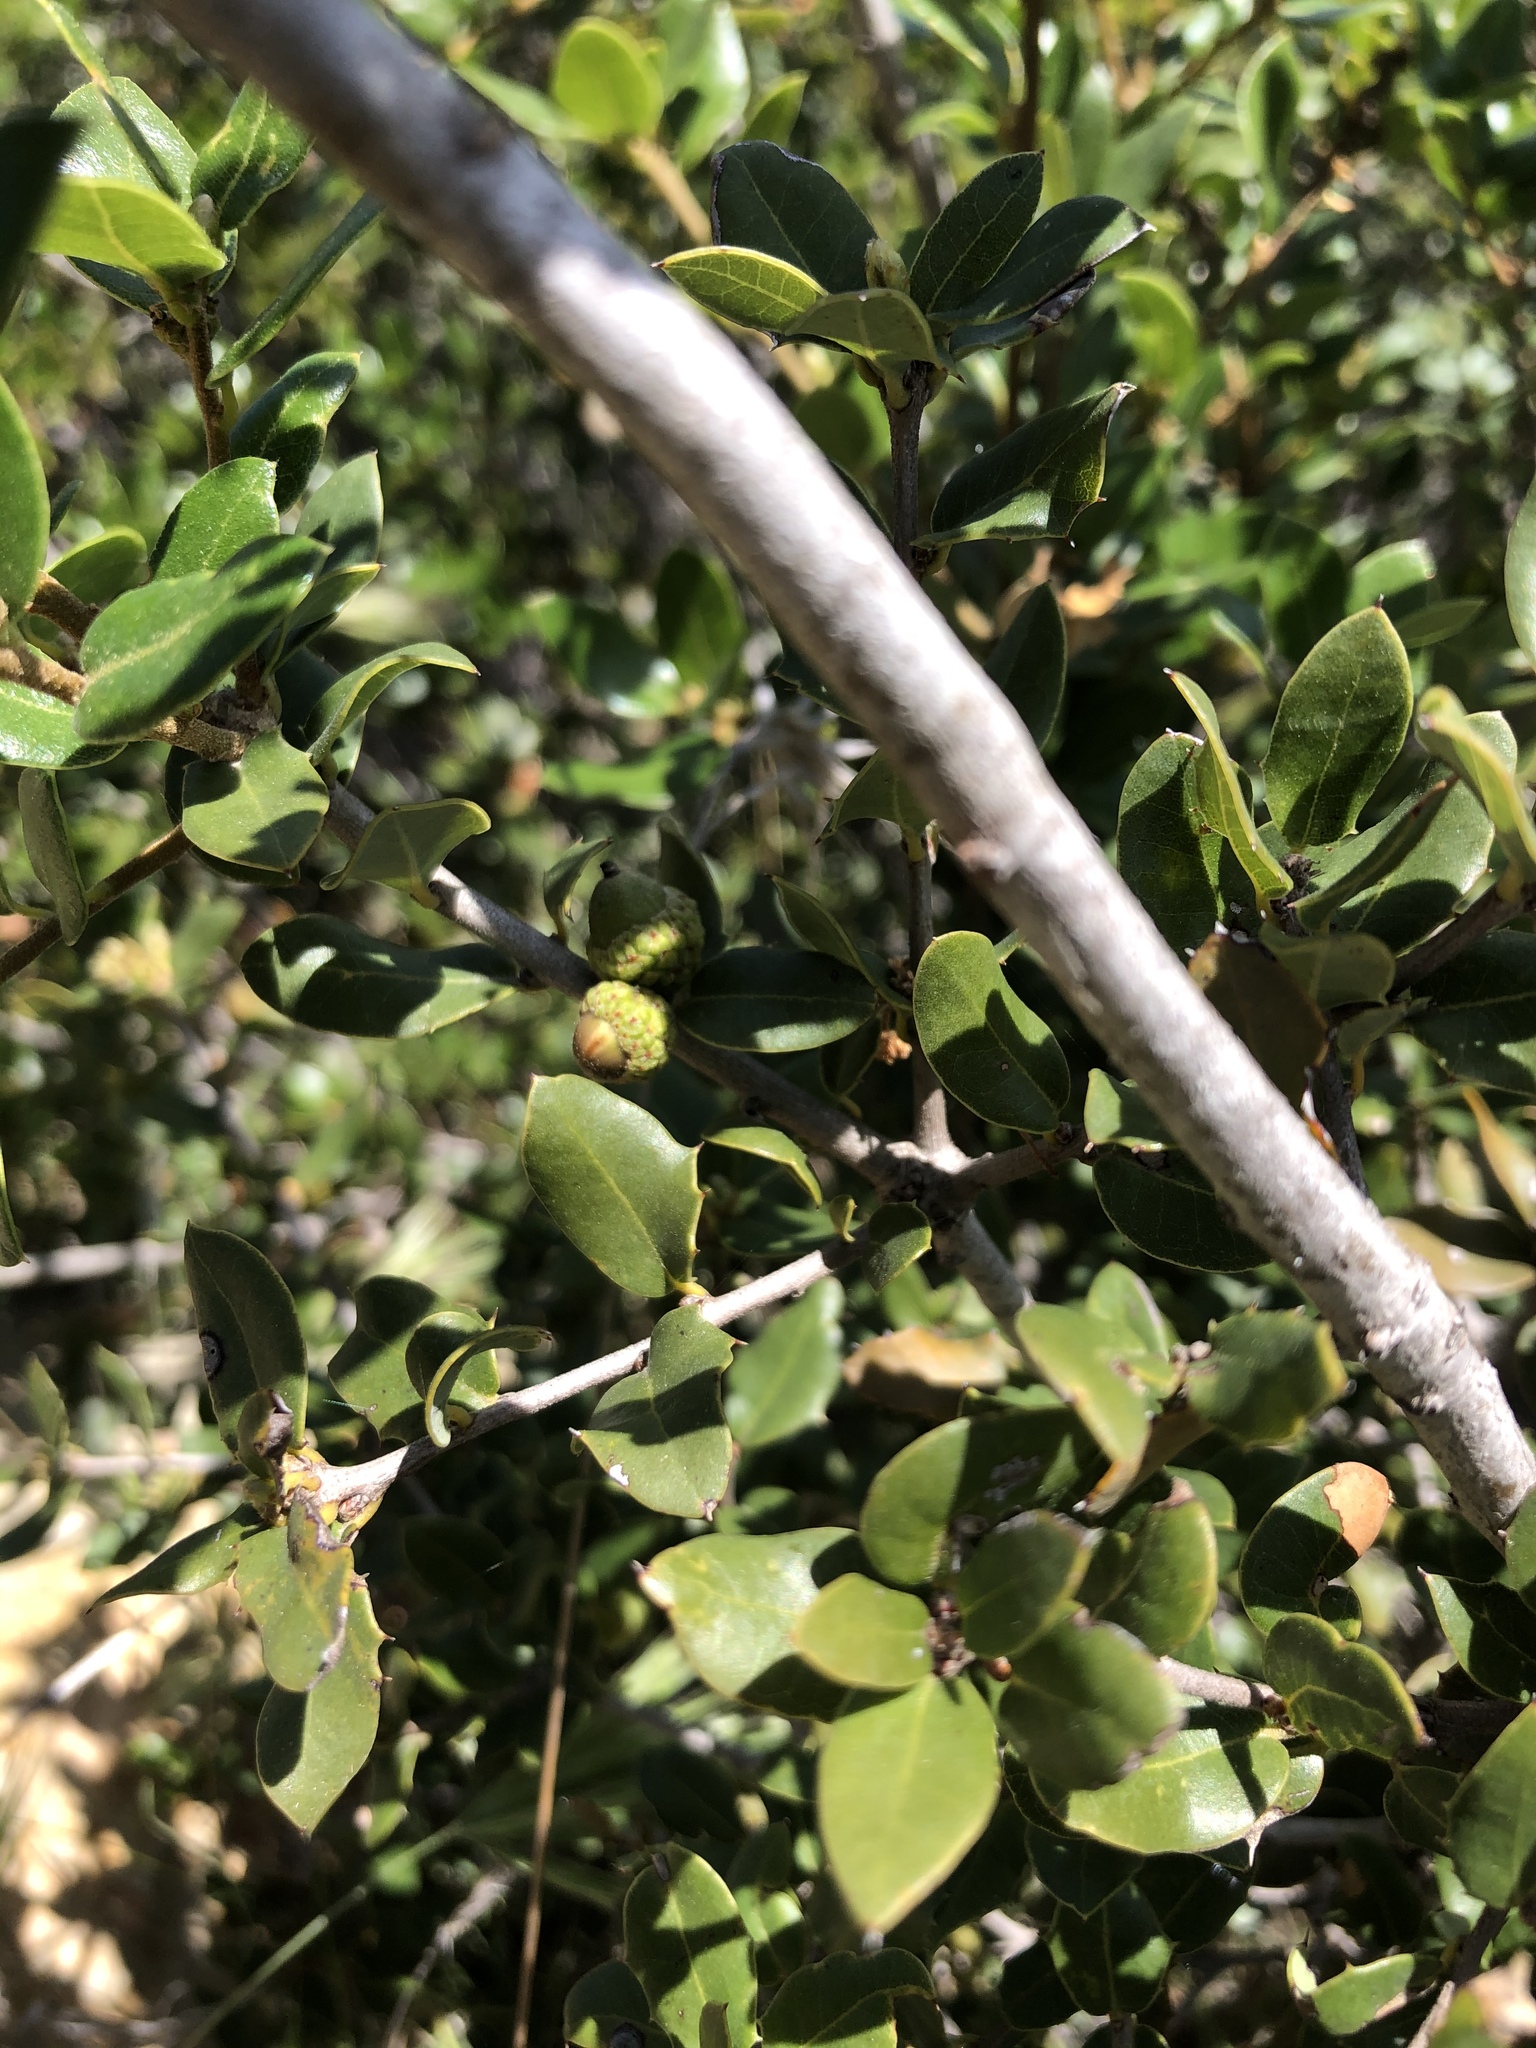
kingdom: Plantae
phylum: Tracheophyta
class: Magnoliopsida
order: Fagales
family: Fagaceae
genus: Quercus
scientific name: Quercus cedrosensis
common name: Cedros island oak
